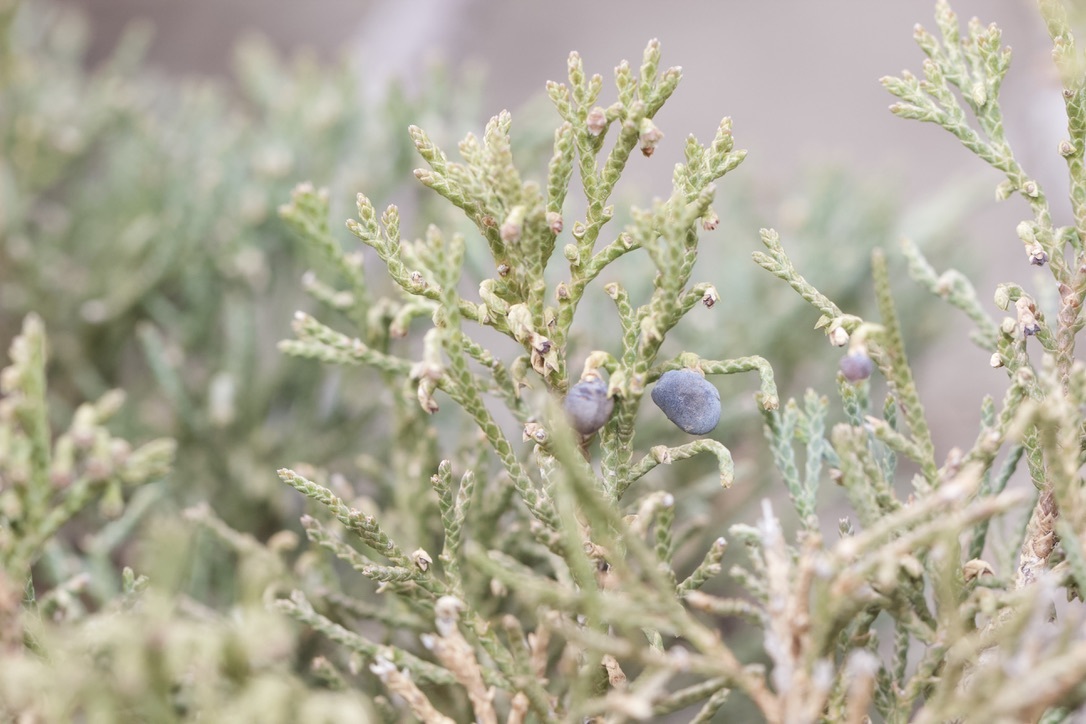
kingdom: Plantae
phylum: Tracheophyta
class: Pinopsida
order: Pinales
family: Cupressaceae
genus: Juniperus
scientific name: Juniperus horizontalis
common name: Creeping juniper
